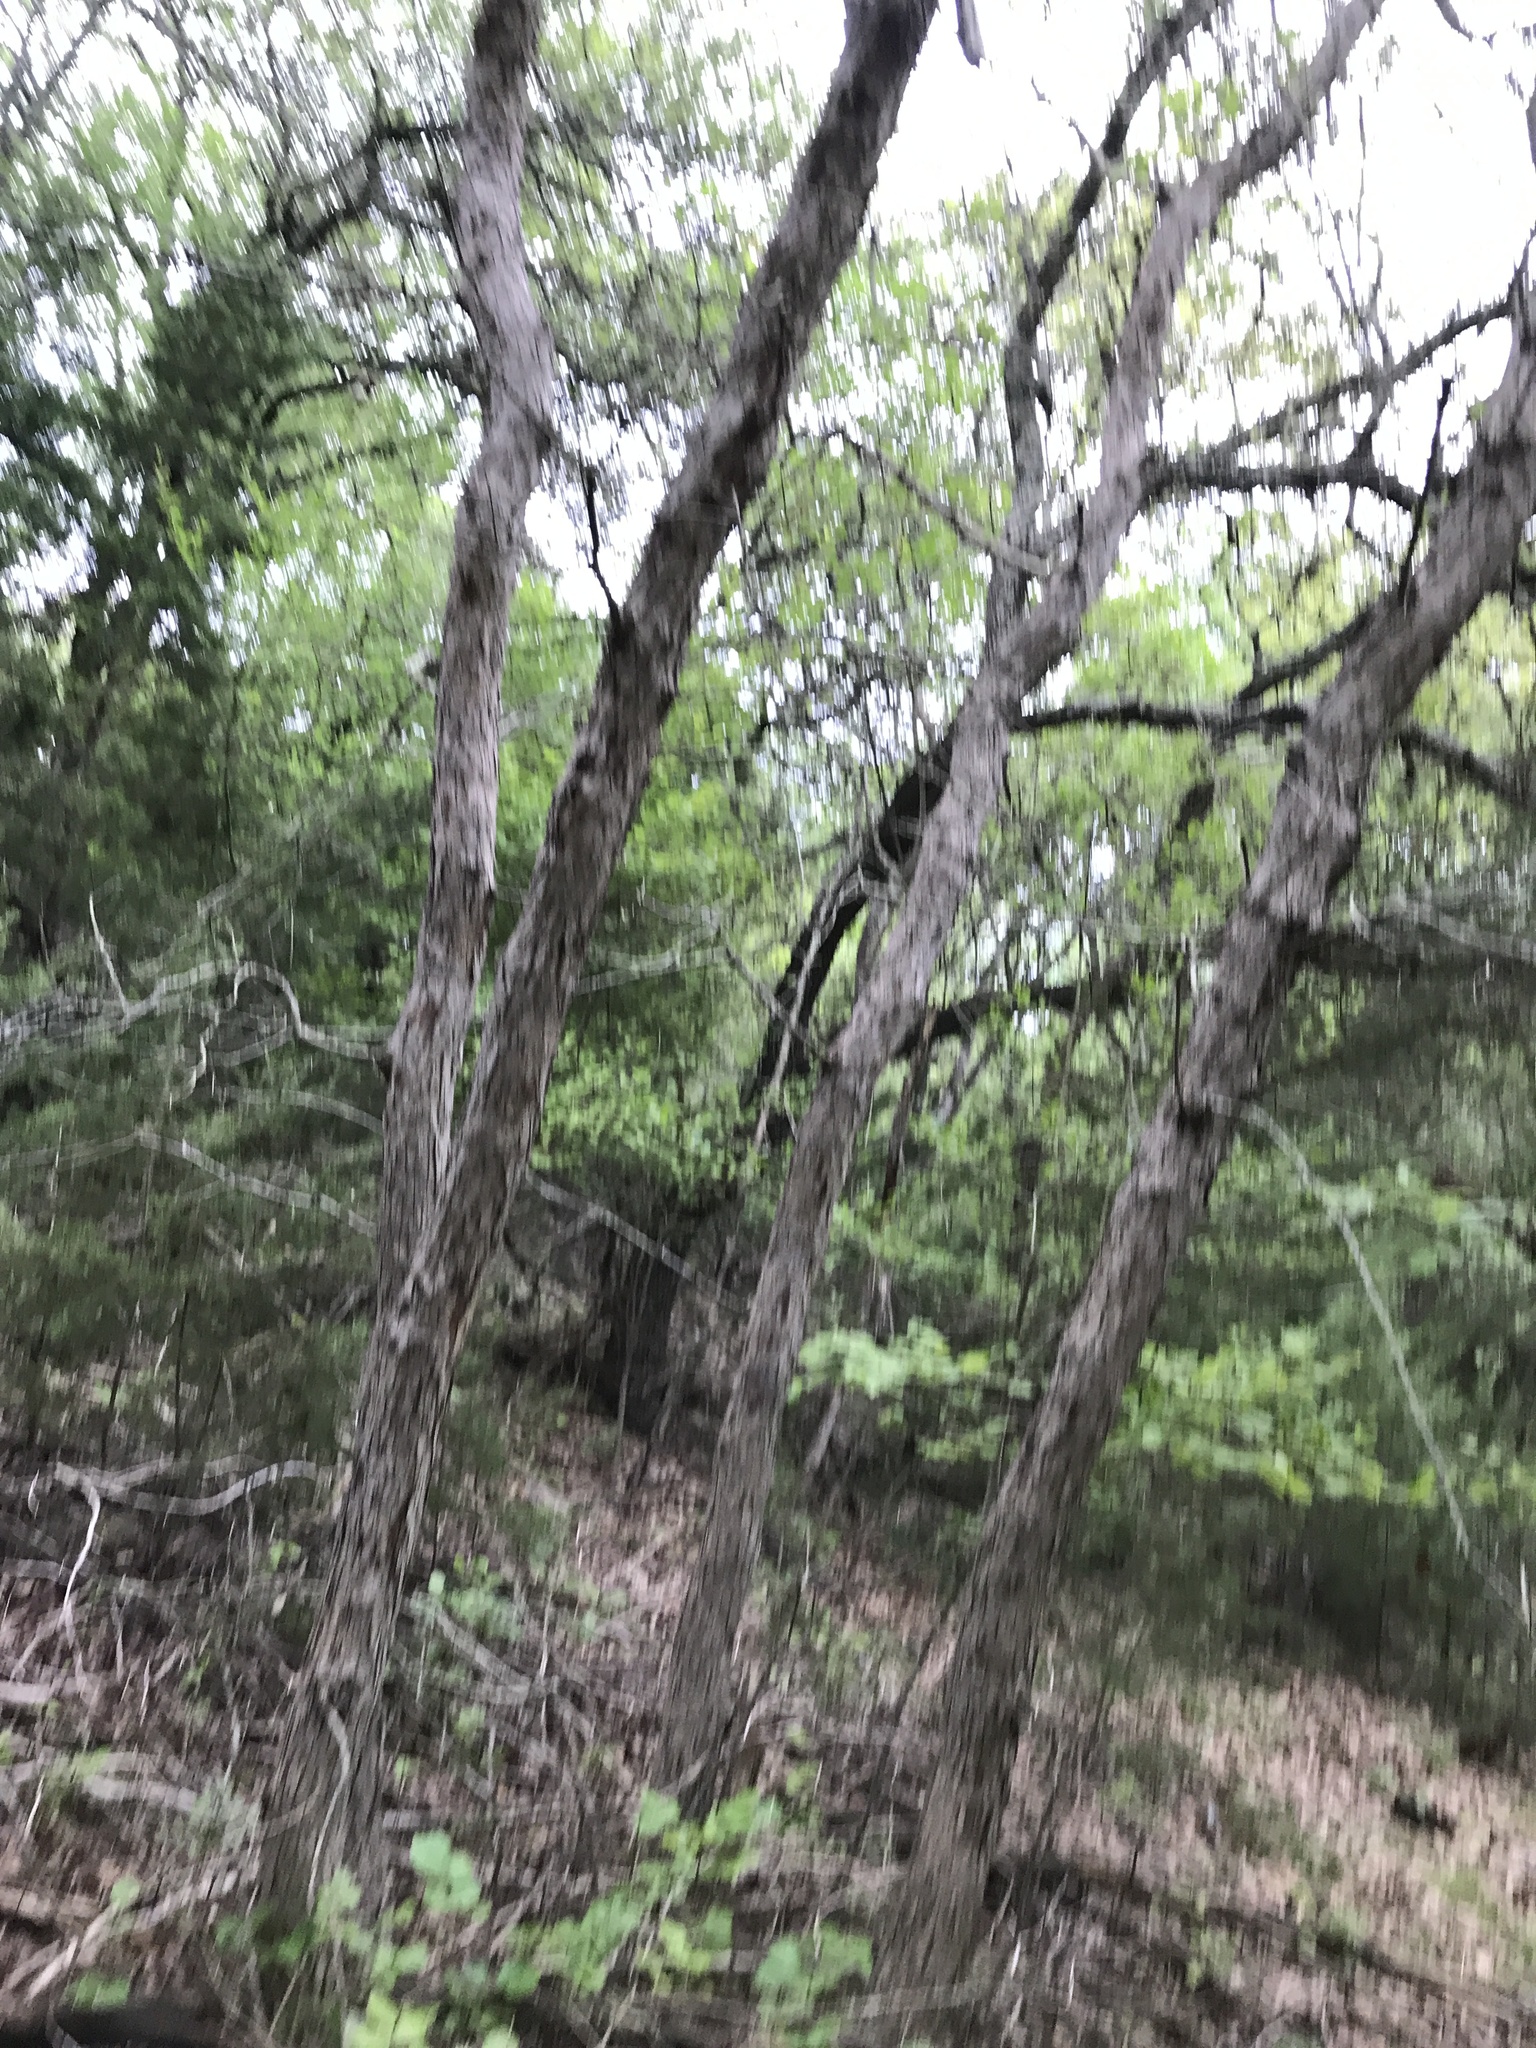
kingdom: Plantae
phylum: Tracheophyta
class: Magnoliopsida
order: Fagales
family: Fagaceae
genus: Quercus
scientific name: Quercus sinuata
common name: Durand oak
